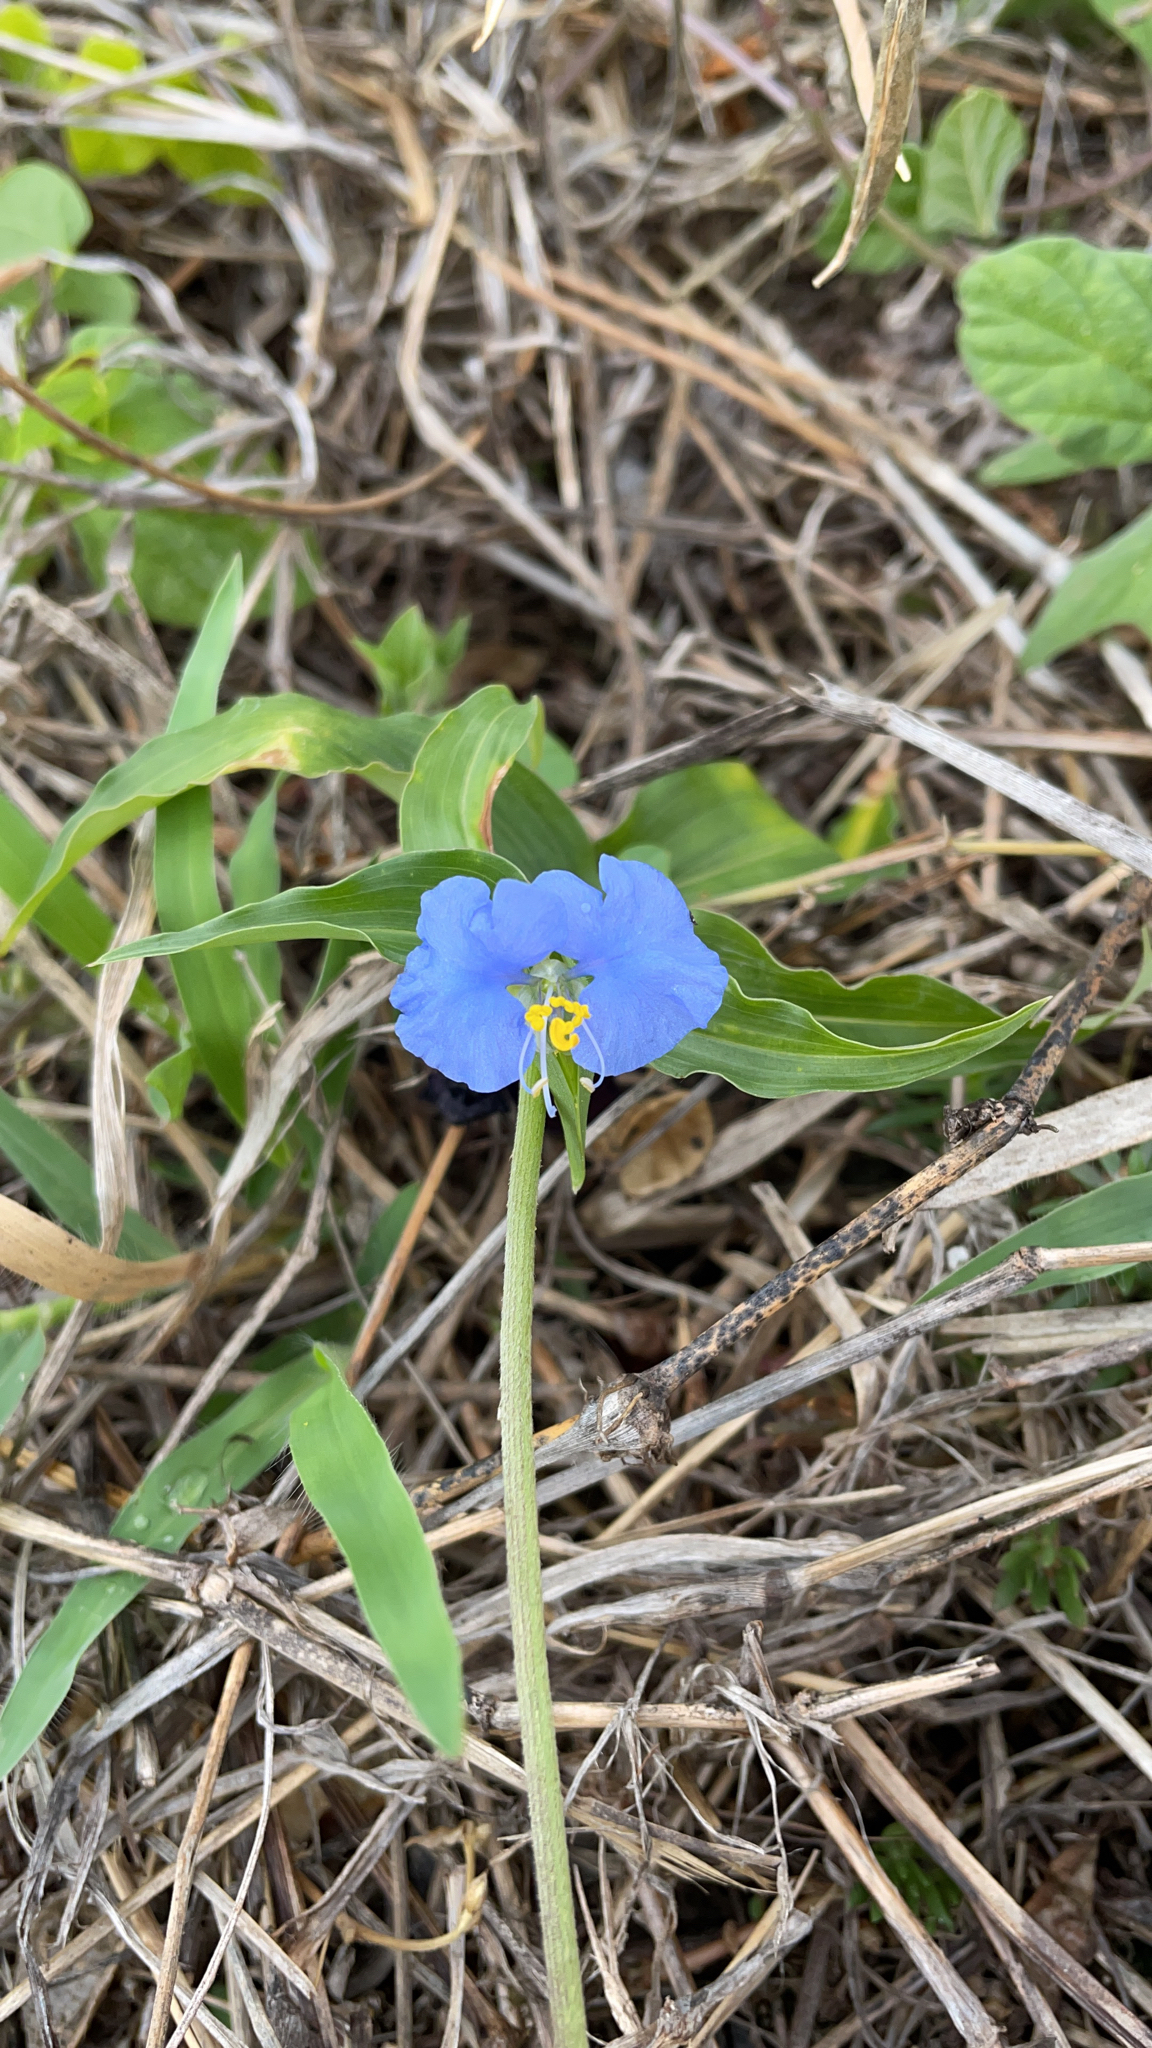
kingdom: Plantae
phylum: Tracheophyta
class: Liliopsida
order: Commelinales
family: Commelinaceae
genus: Commelina
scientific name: Commelina ensifolia
